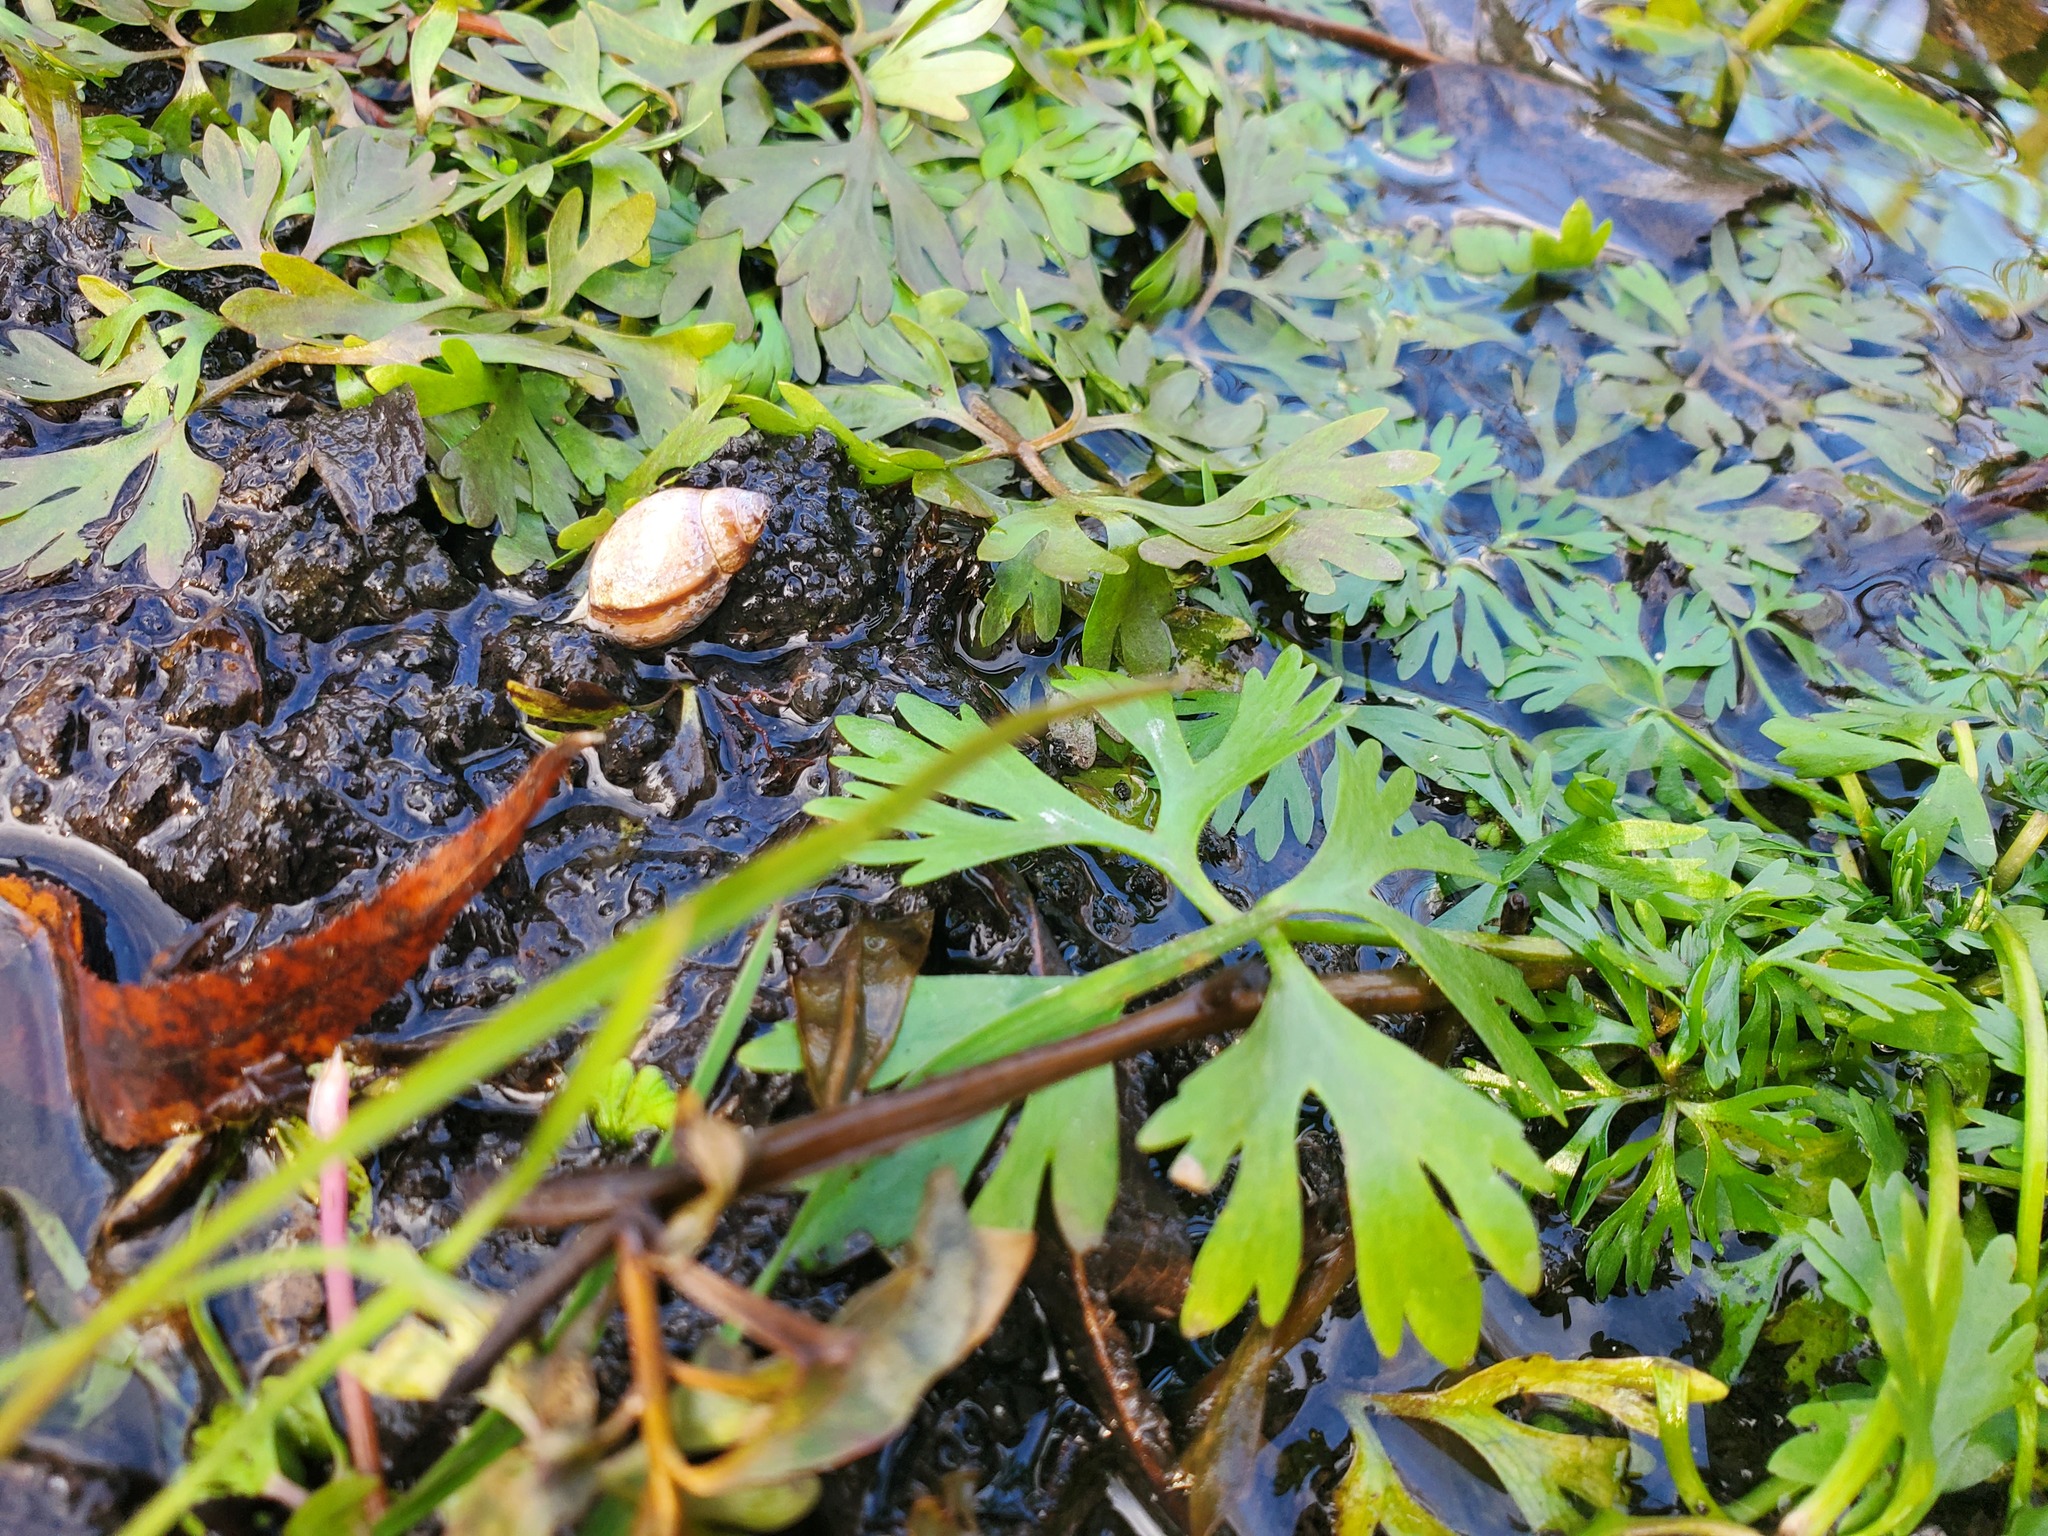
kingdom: Plantae
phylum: Tracheophyta
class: Magnoliopsida
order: Ranunculales
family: Ranunculaceae
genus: Ranunculus
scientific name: Ranunculus flabellaris
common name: Yellow water-crowfoot
